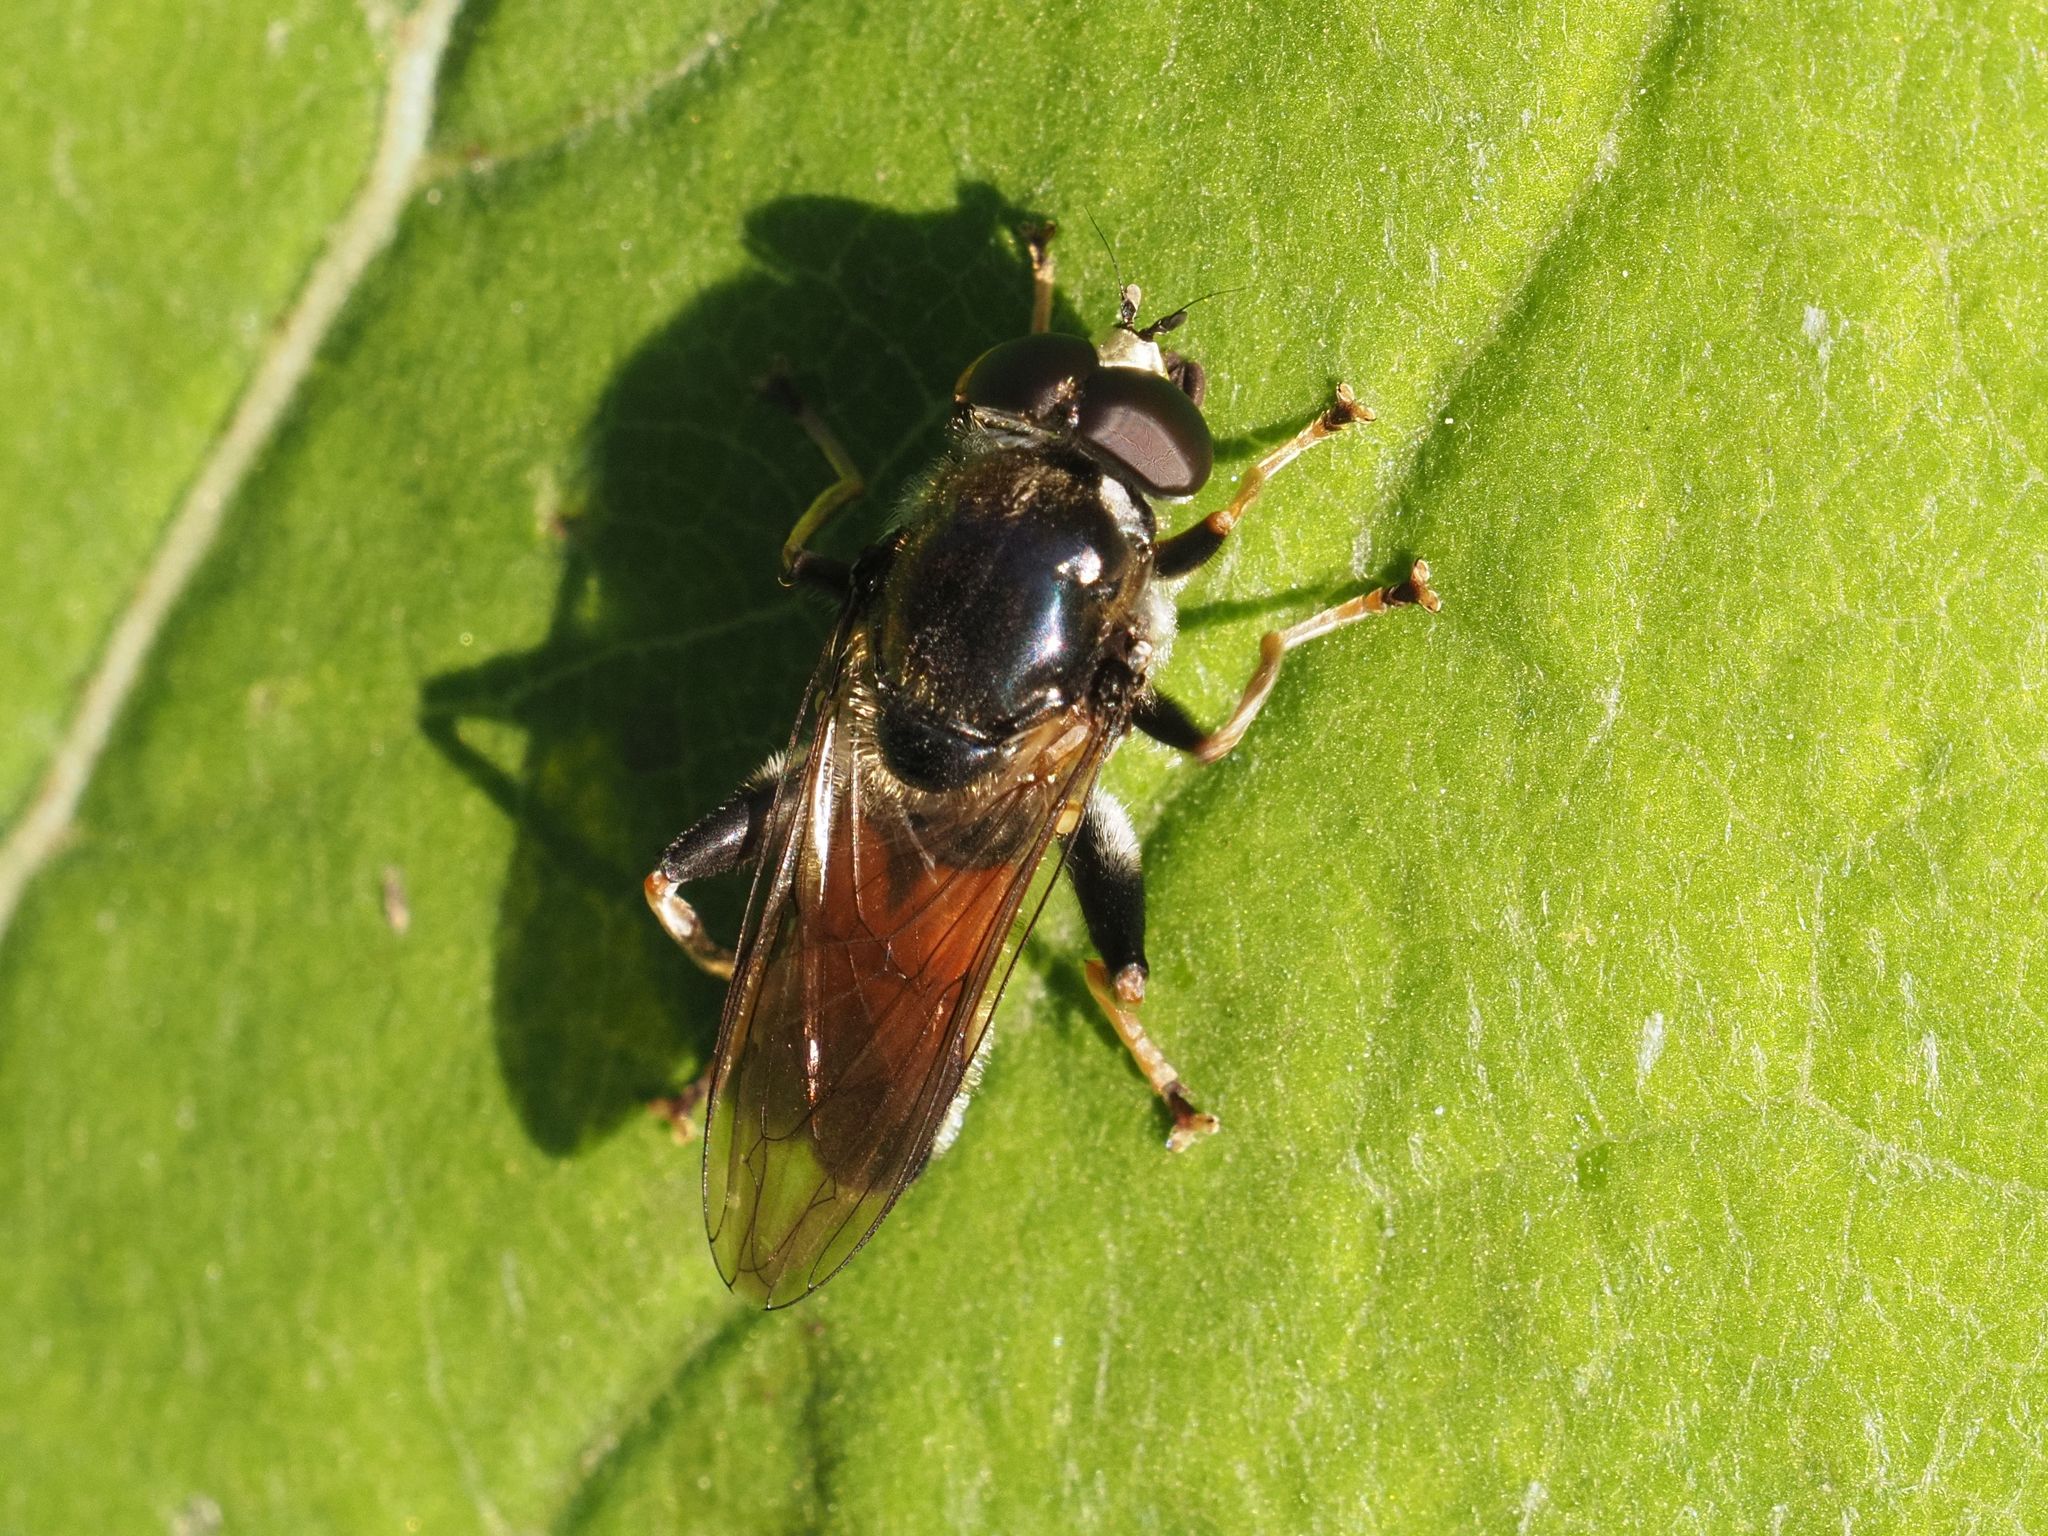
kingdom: Animalia
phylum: Arthropoda
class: Insecta
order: Diptera
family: Syrphidae
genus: Xylota
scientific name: Xylota ignava
